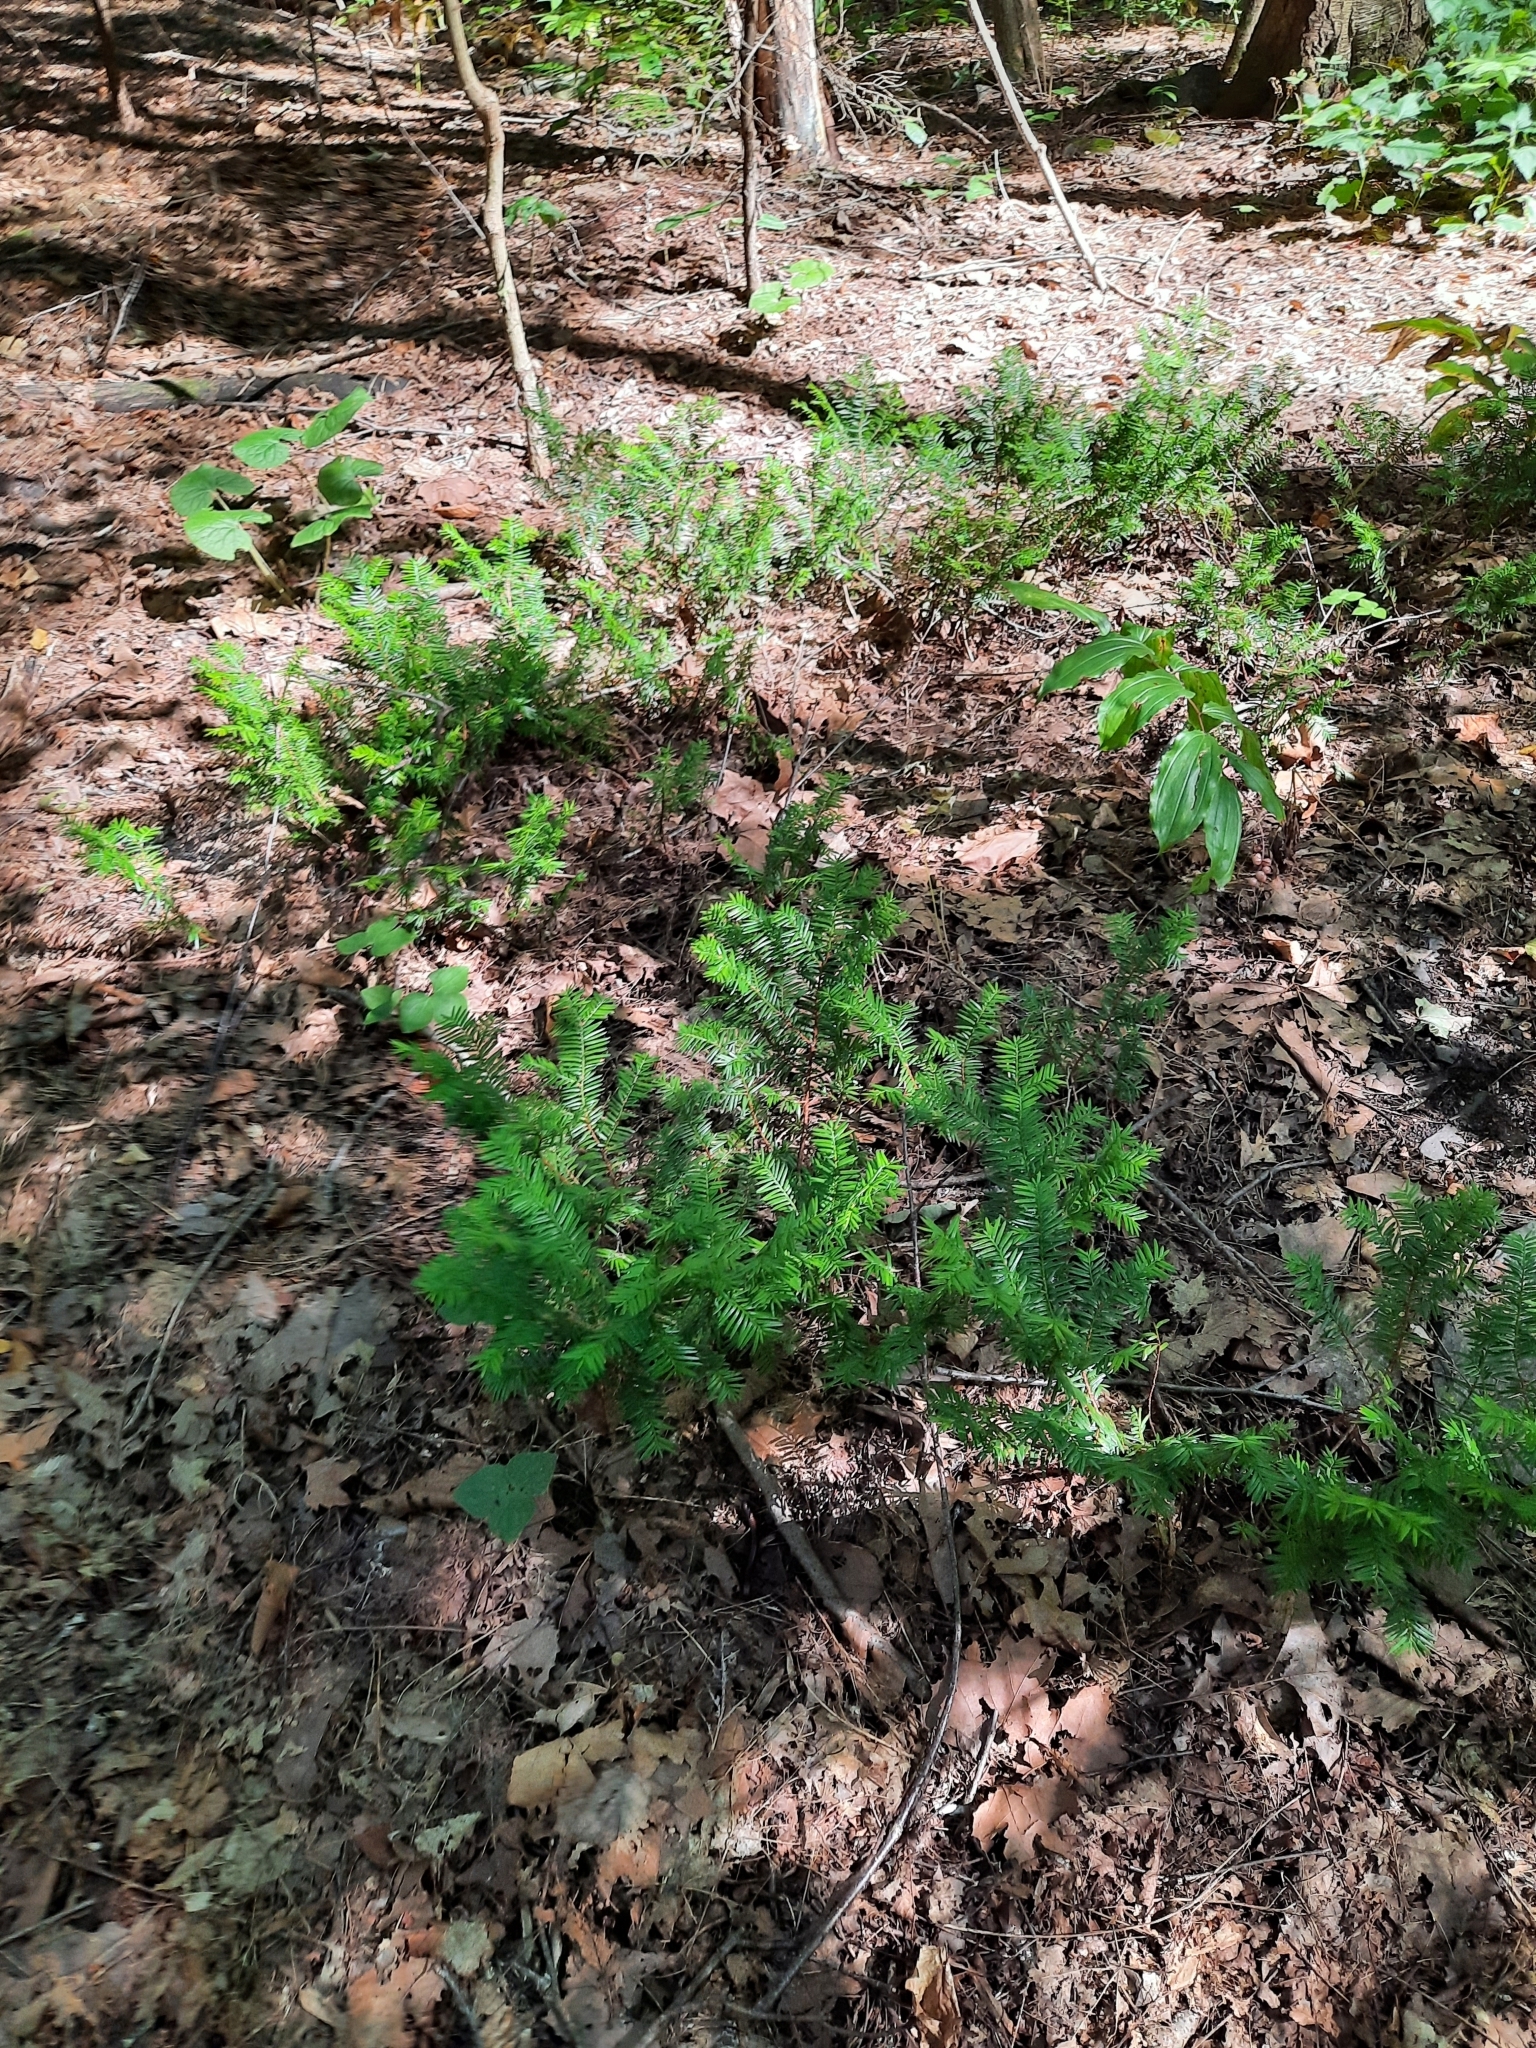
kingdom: Plantae
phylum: Tracheophyta
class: Pinopsida
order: Pinales
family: Taxaceae
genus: Taxus
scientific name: Taxus canadensis
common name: American yew
